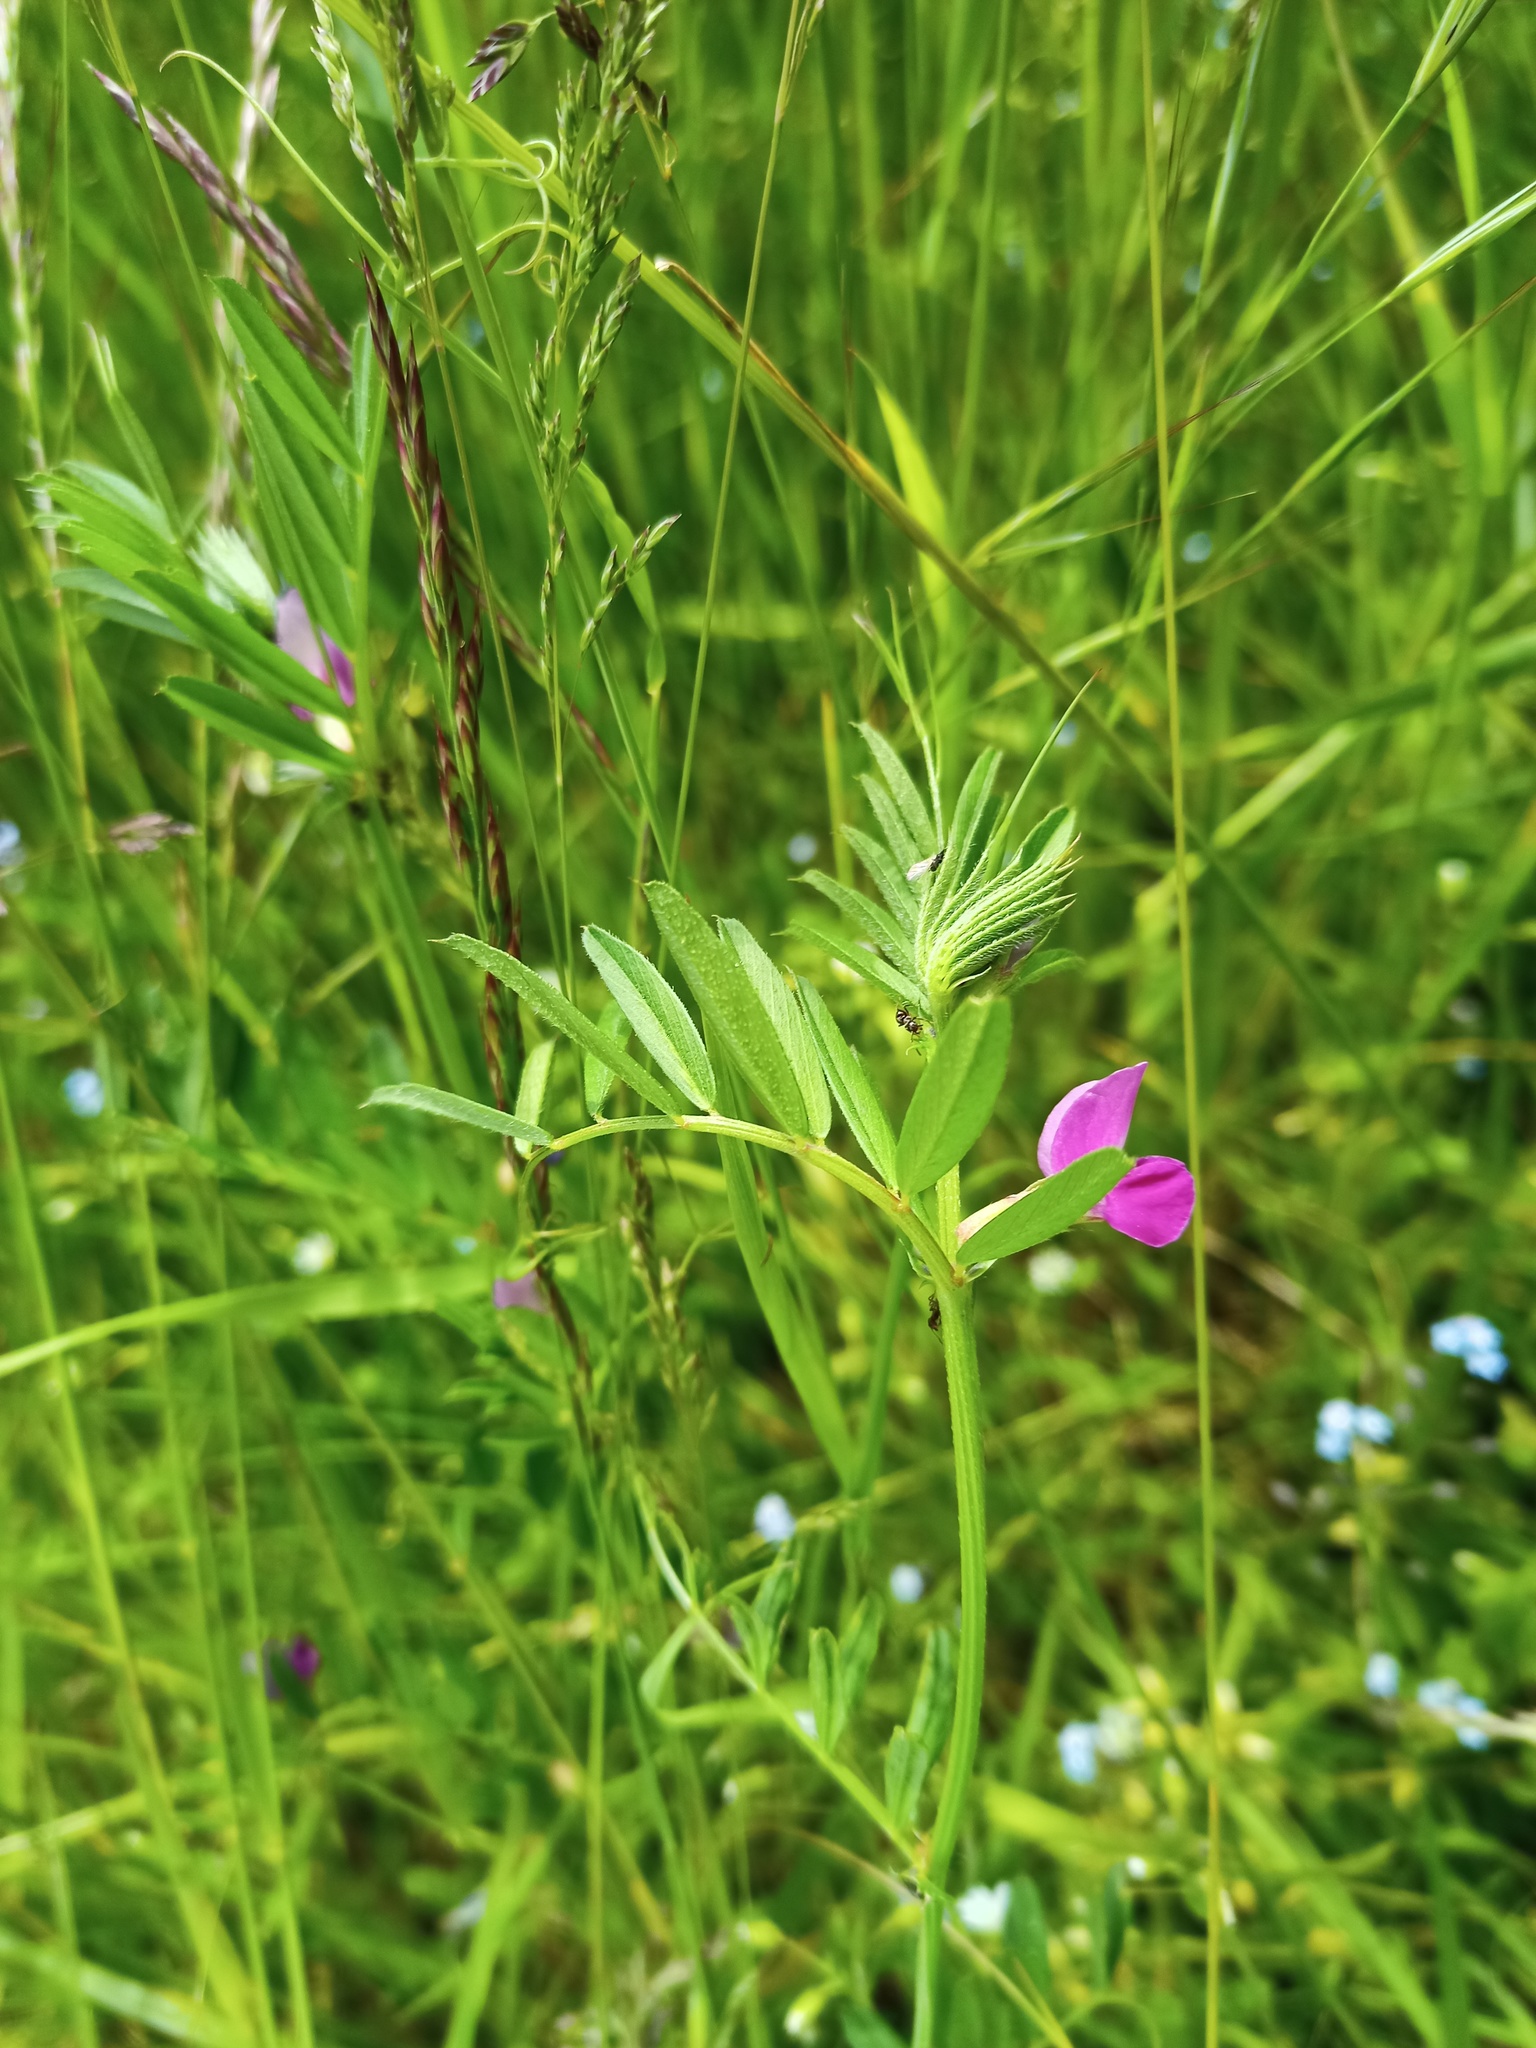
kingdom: Plantae
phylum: Tracheophyta
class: Magnoliopsida
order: Fabales
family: Fabaceae
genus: Vicia
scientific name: Vicia sativa
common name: Garden vetch
